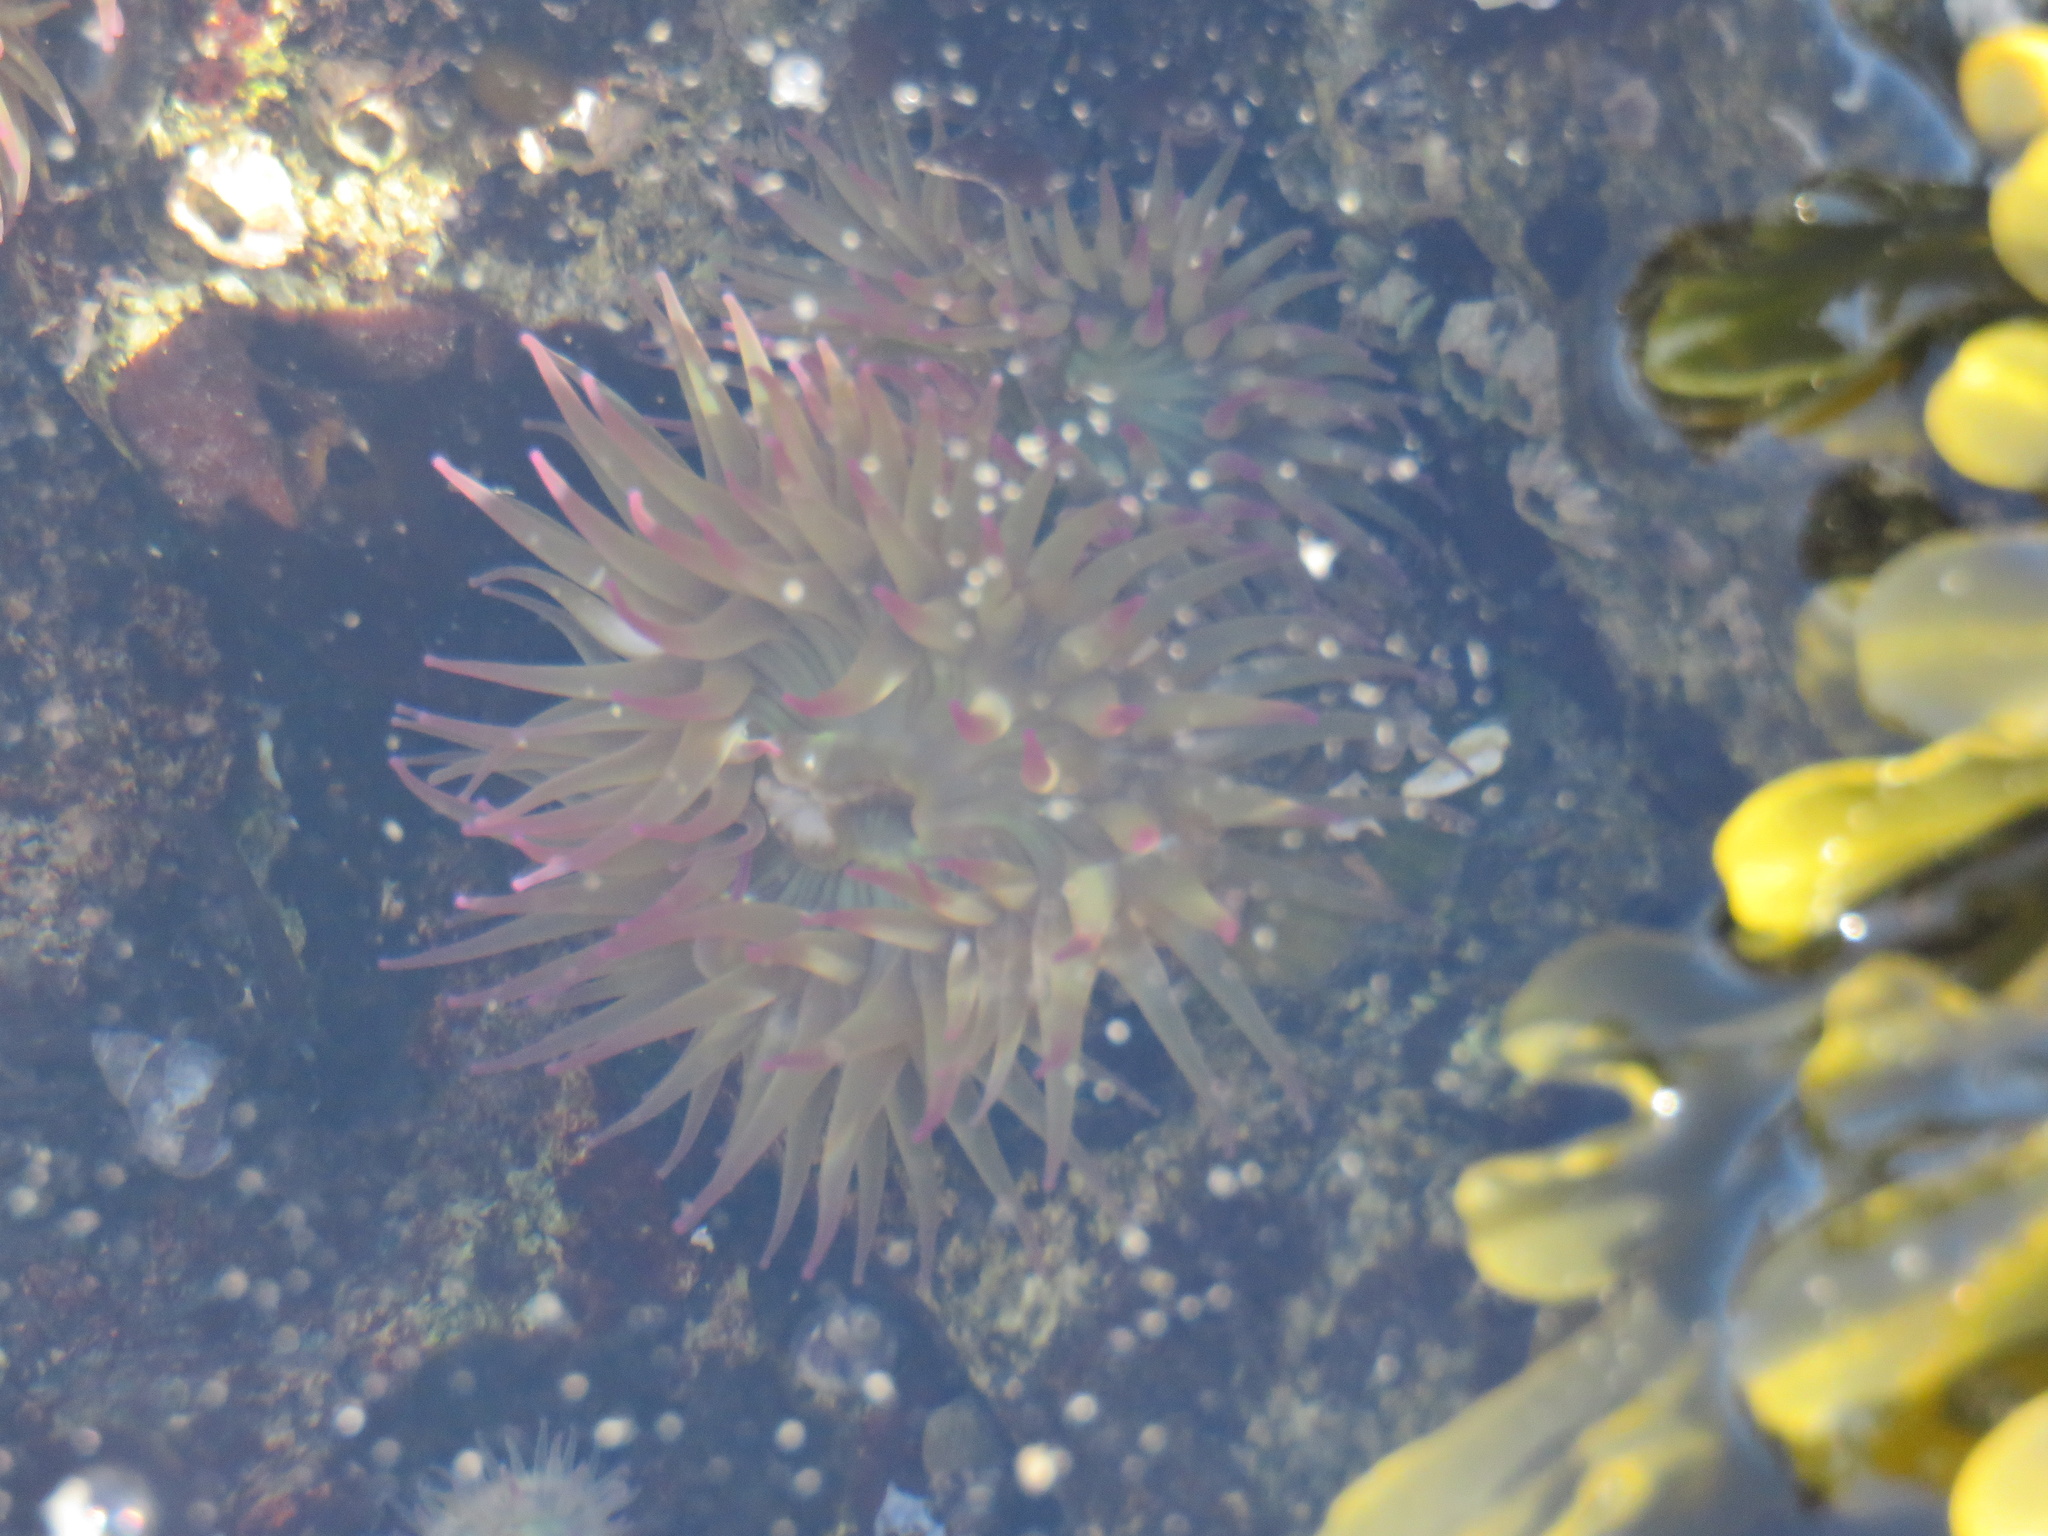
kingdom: Animalia
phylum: Cnidaria
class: Anthozoa
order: Actiniaria
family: Actiniidae
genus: Anthopleura
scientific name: Anthopleura elegantissima
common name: Clonal anemone
